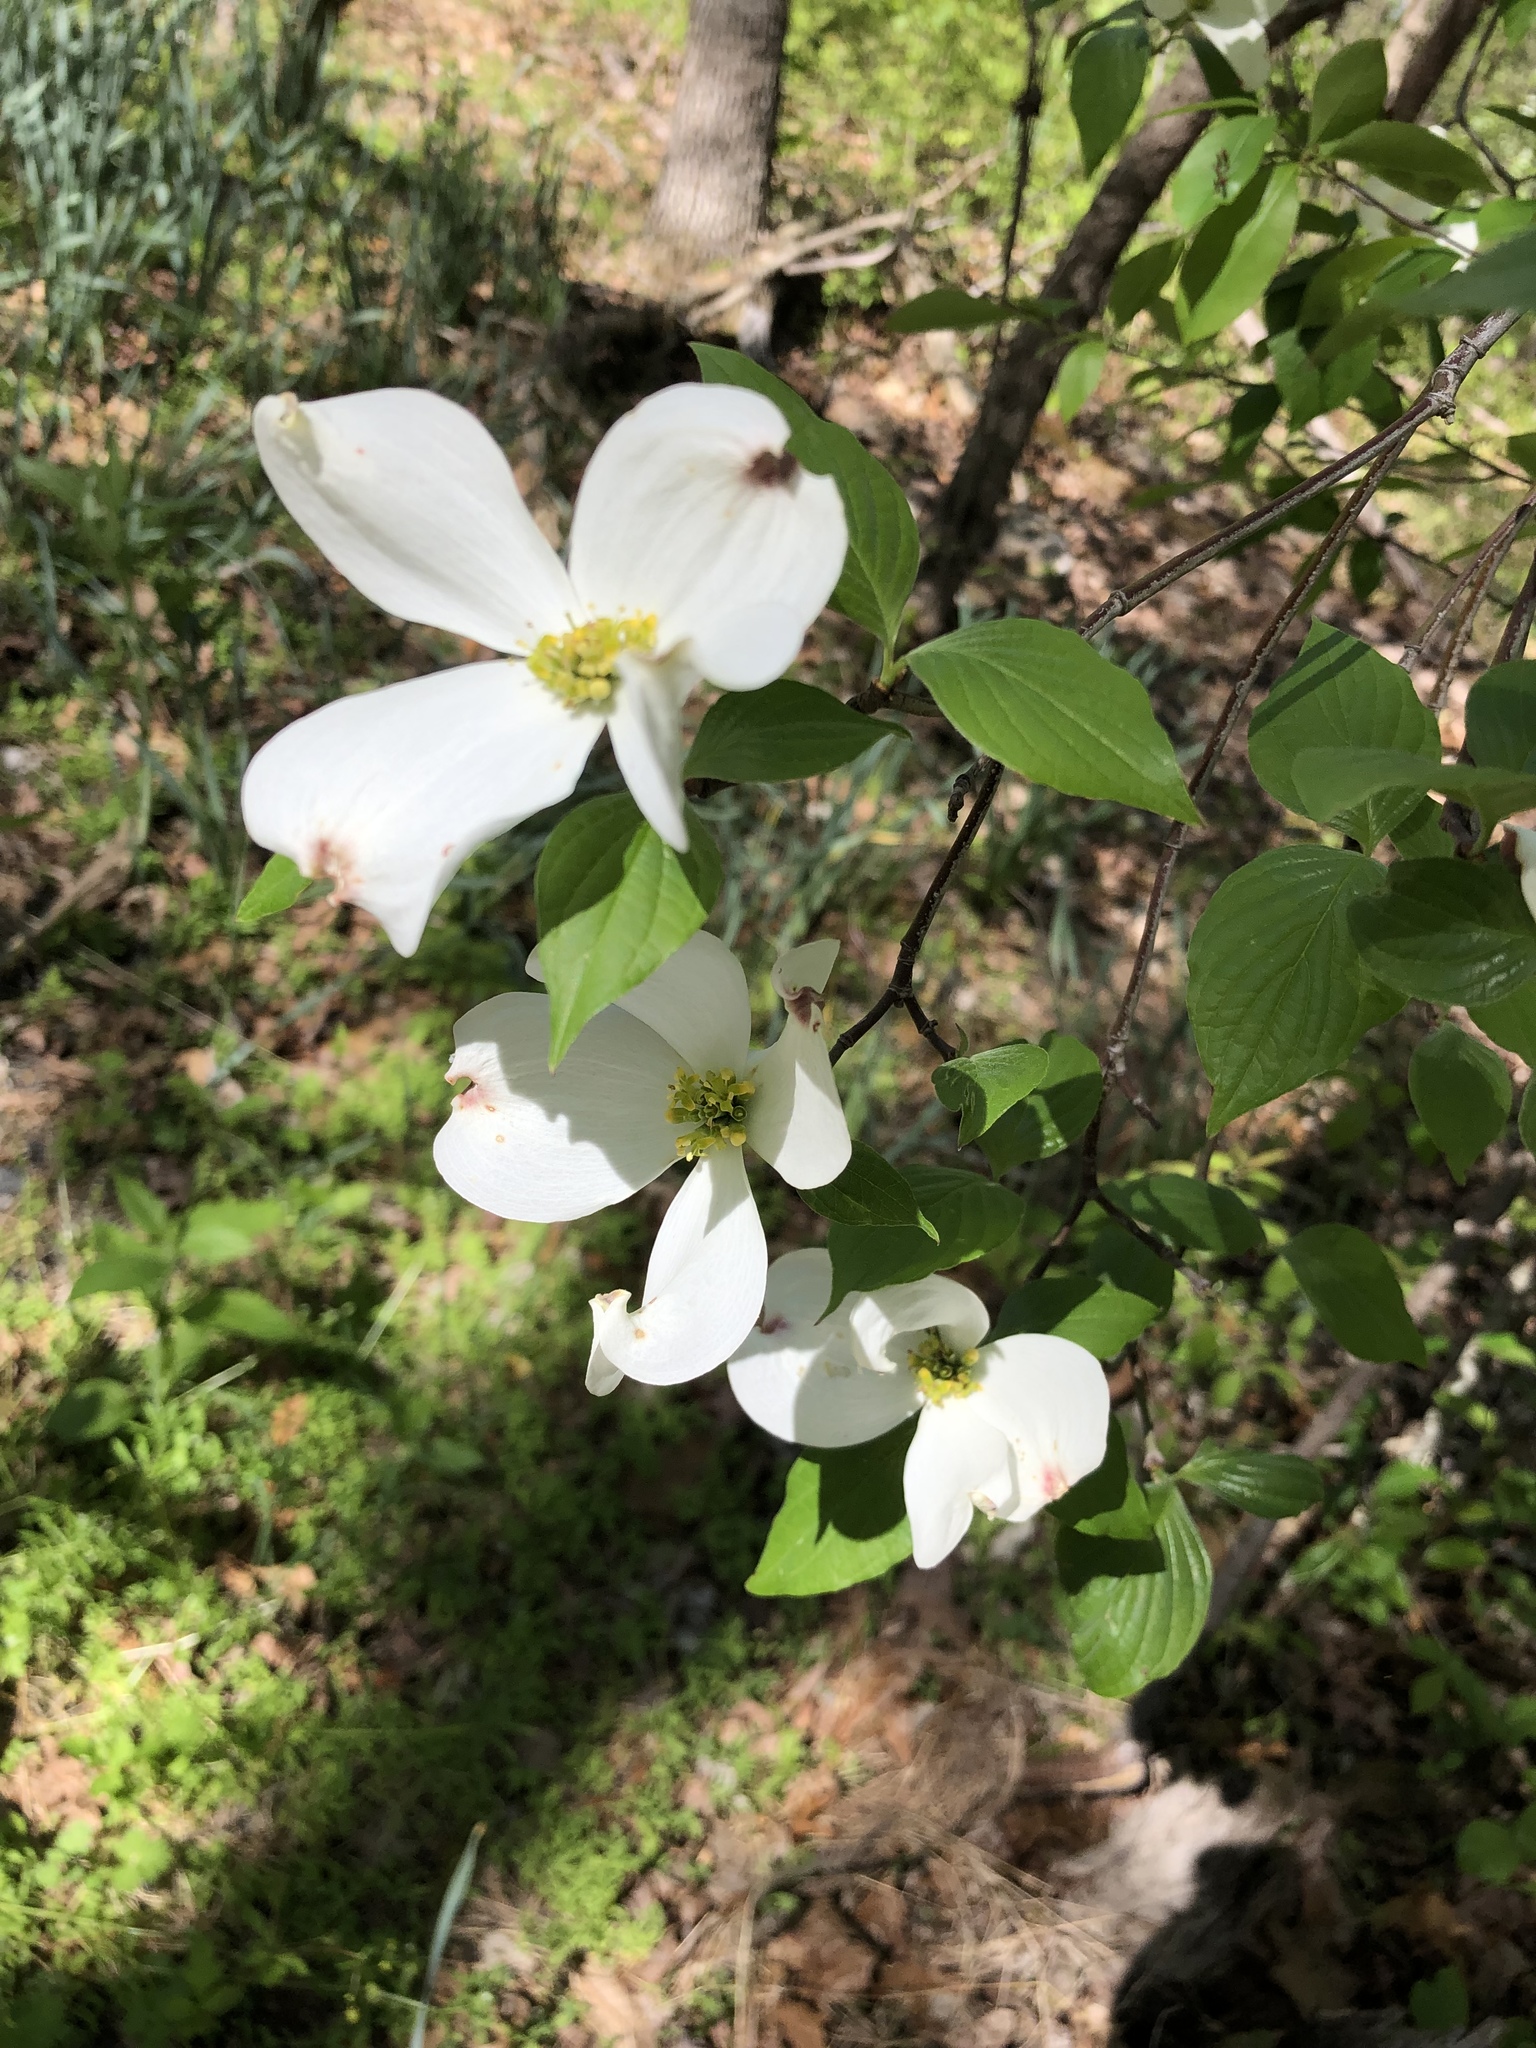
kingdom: Plantae
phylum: Tracheophyta
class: Magnoliopsida
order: Cornales
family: Cornaceae
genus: Cornus
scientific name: Cornus florida
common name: Flowering dogwood
